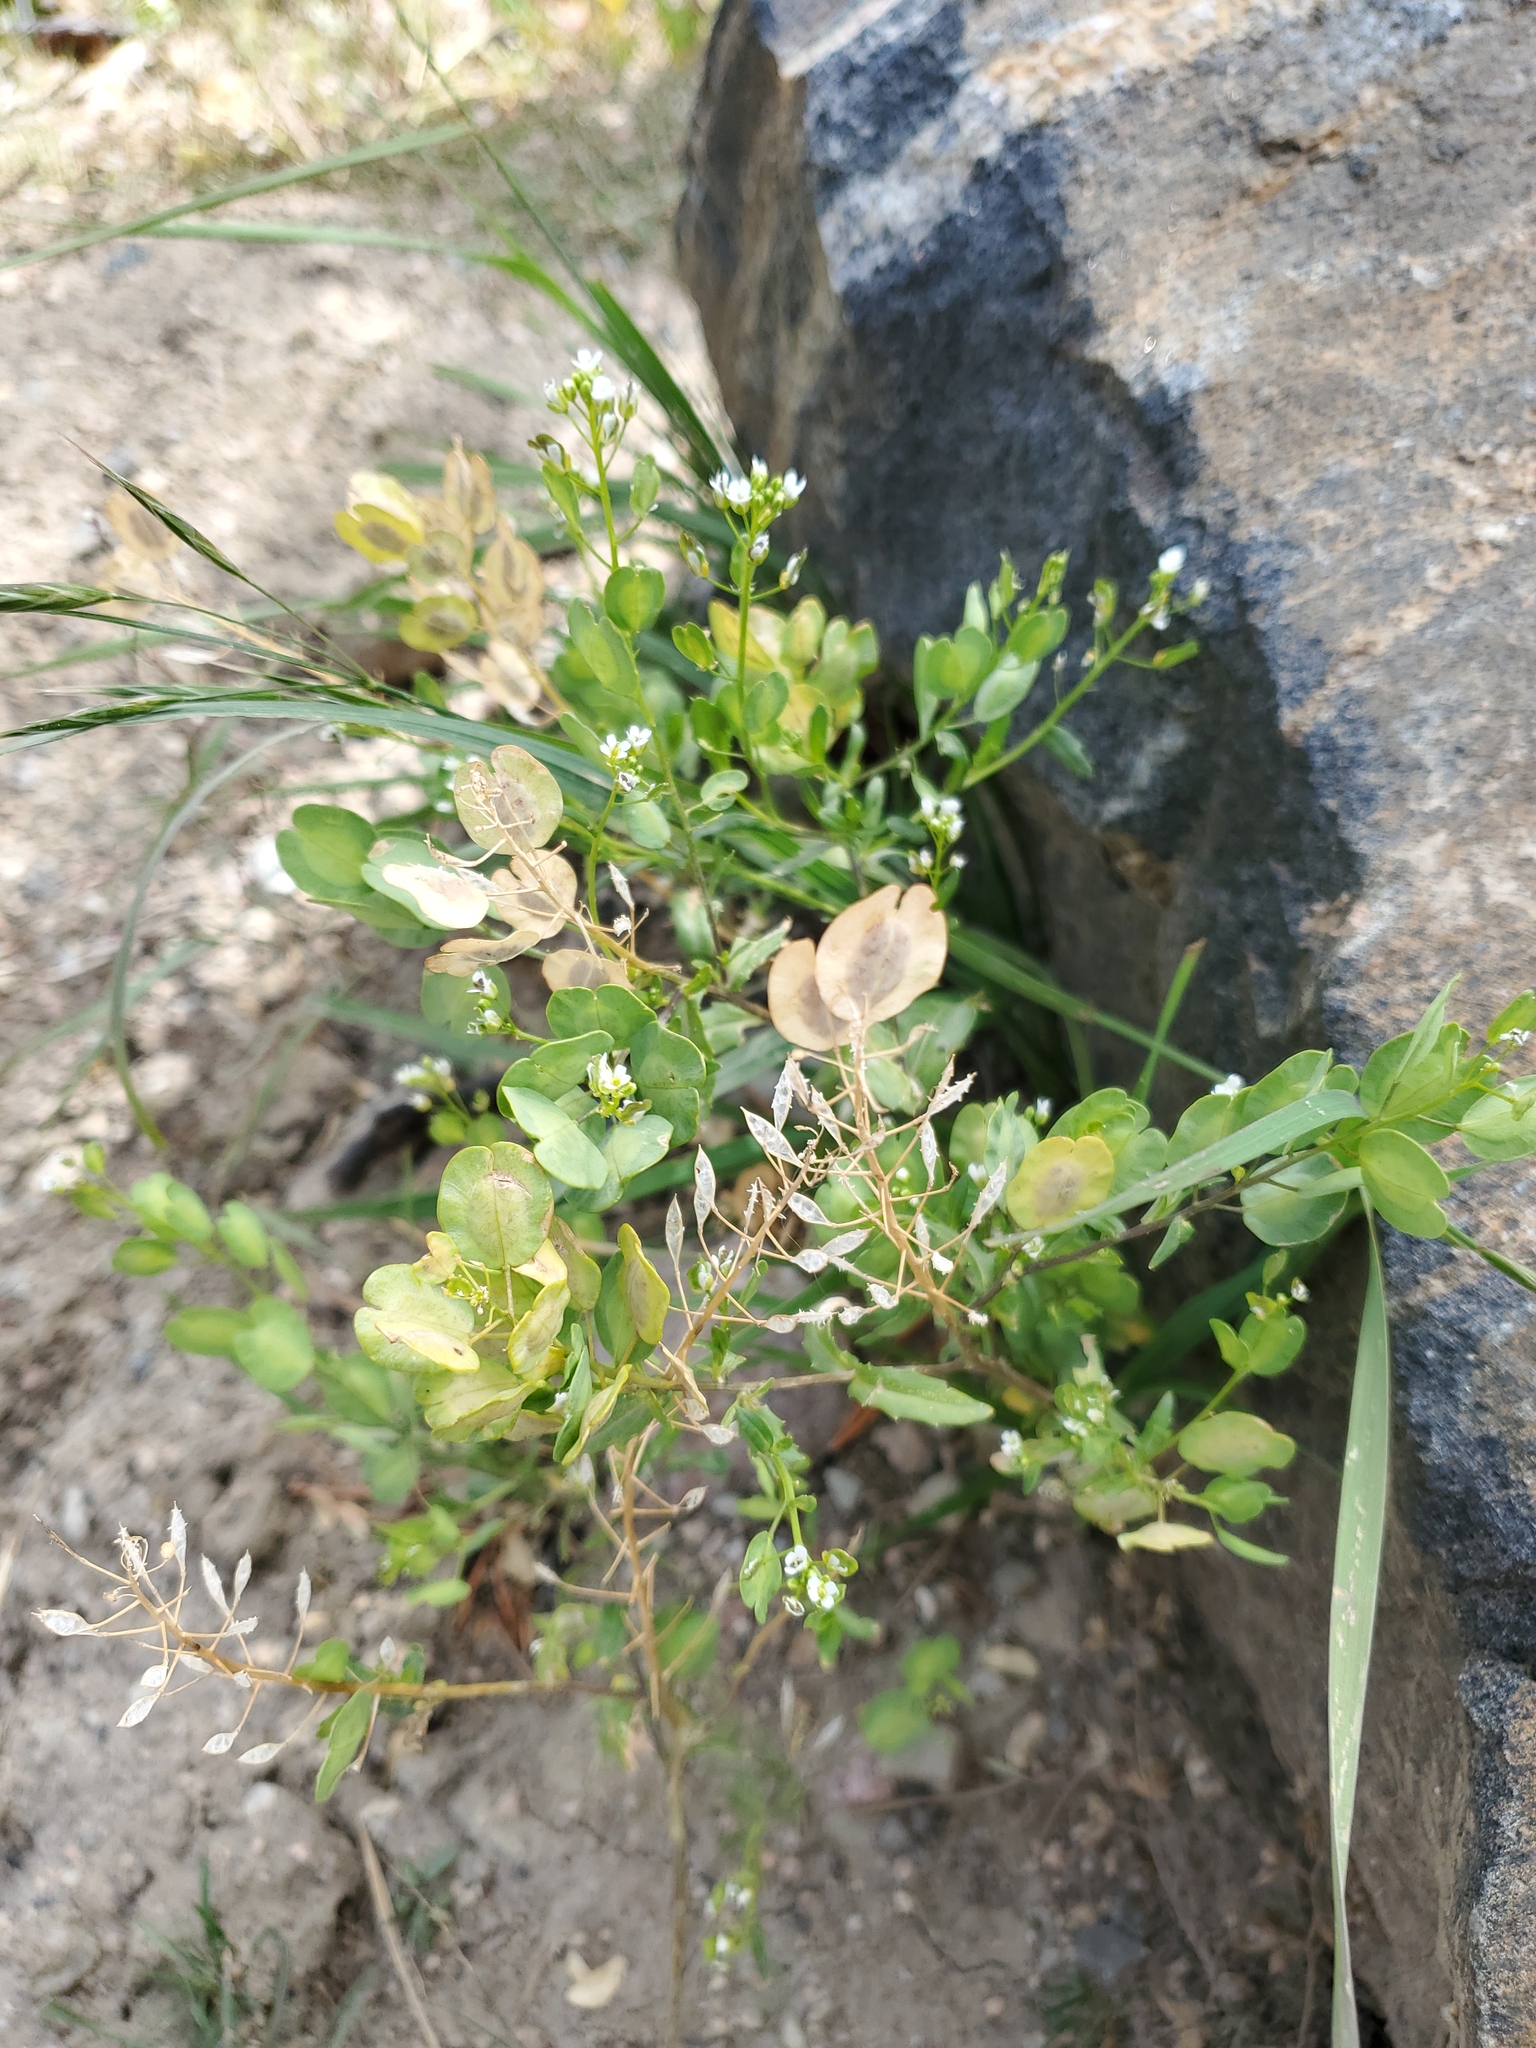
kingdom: Plantae
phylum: Tracheophyta
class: Magnoliopsida
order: Brassicales
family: Brassicaceae
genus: Thlaspi
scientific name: Thlaspi arvense
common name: Field pennycress
